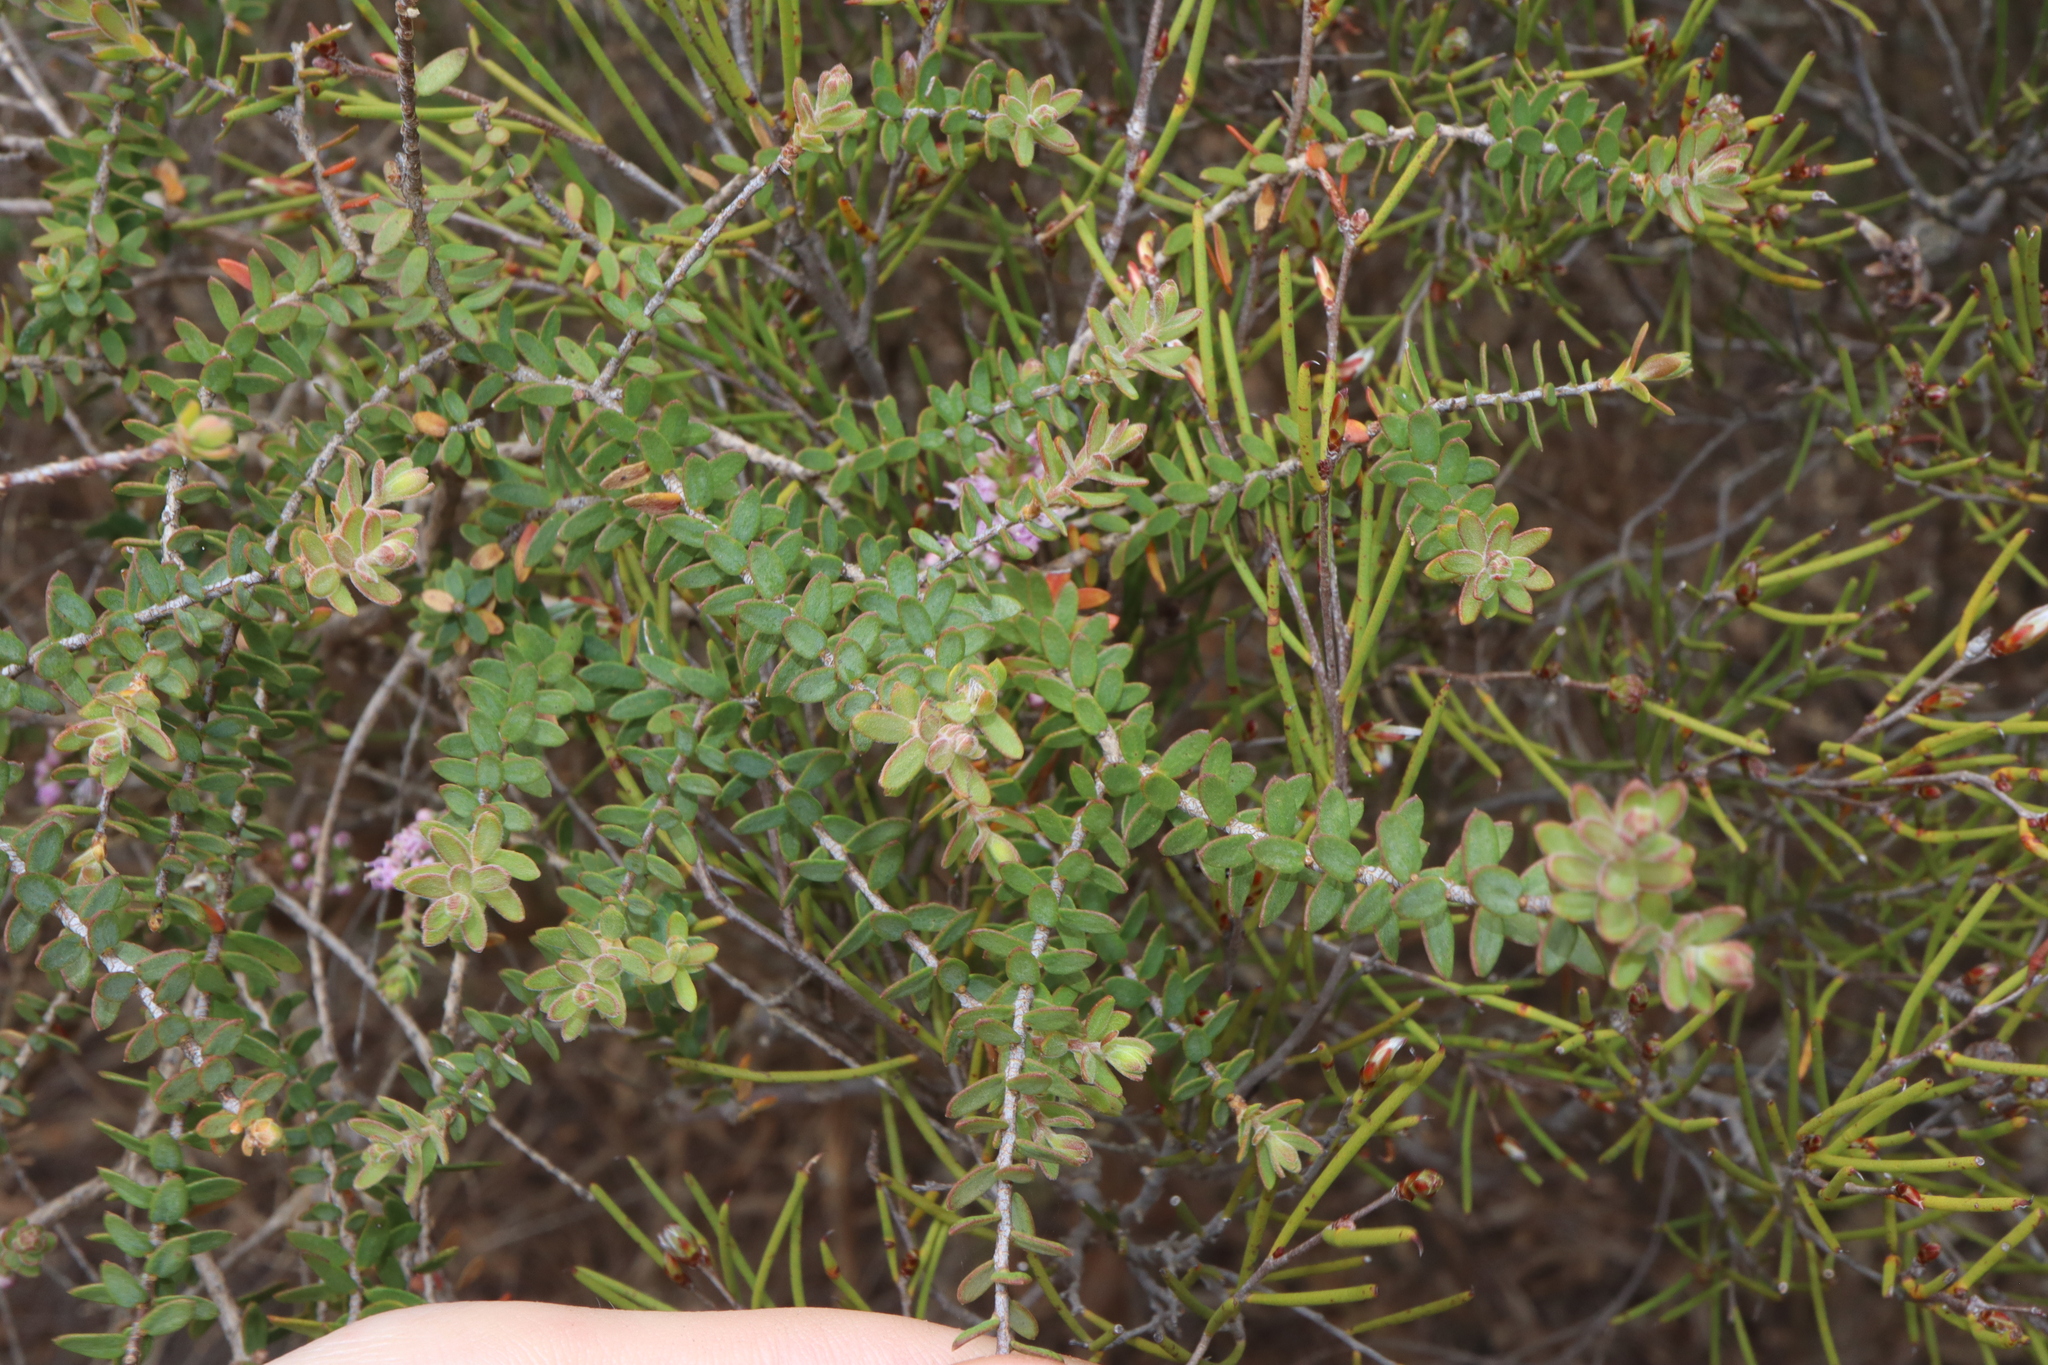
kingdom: Plantae
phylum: Tracheophyta
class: Magnoliopsida
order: Myrtales
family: Myrtaceae
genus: Melaleuca
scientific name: Melaleuca spicigera
